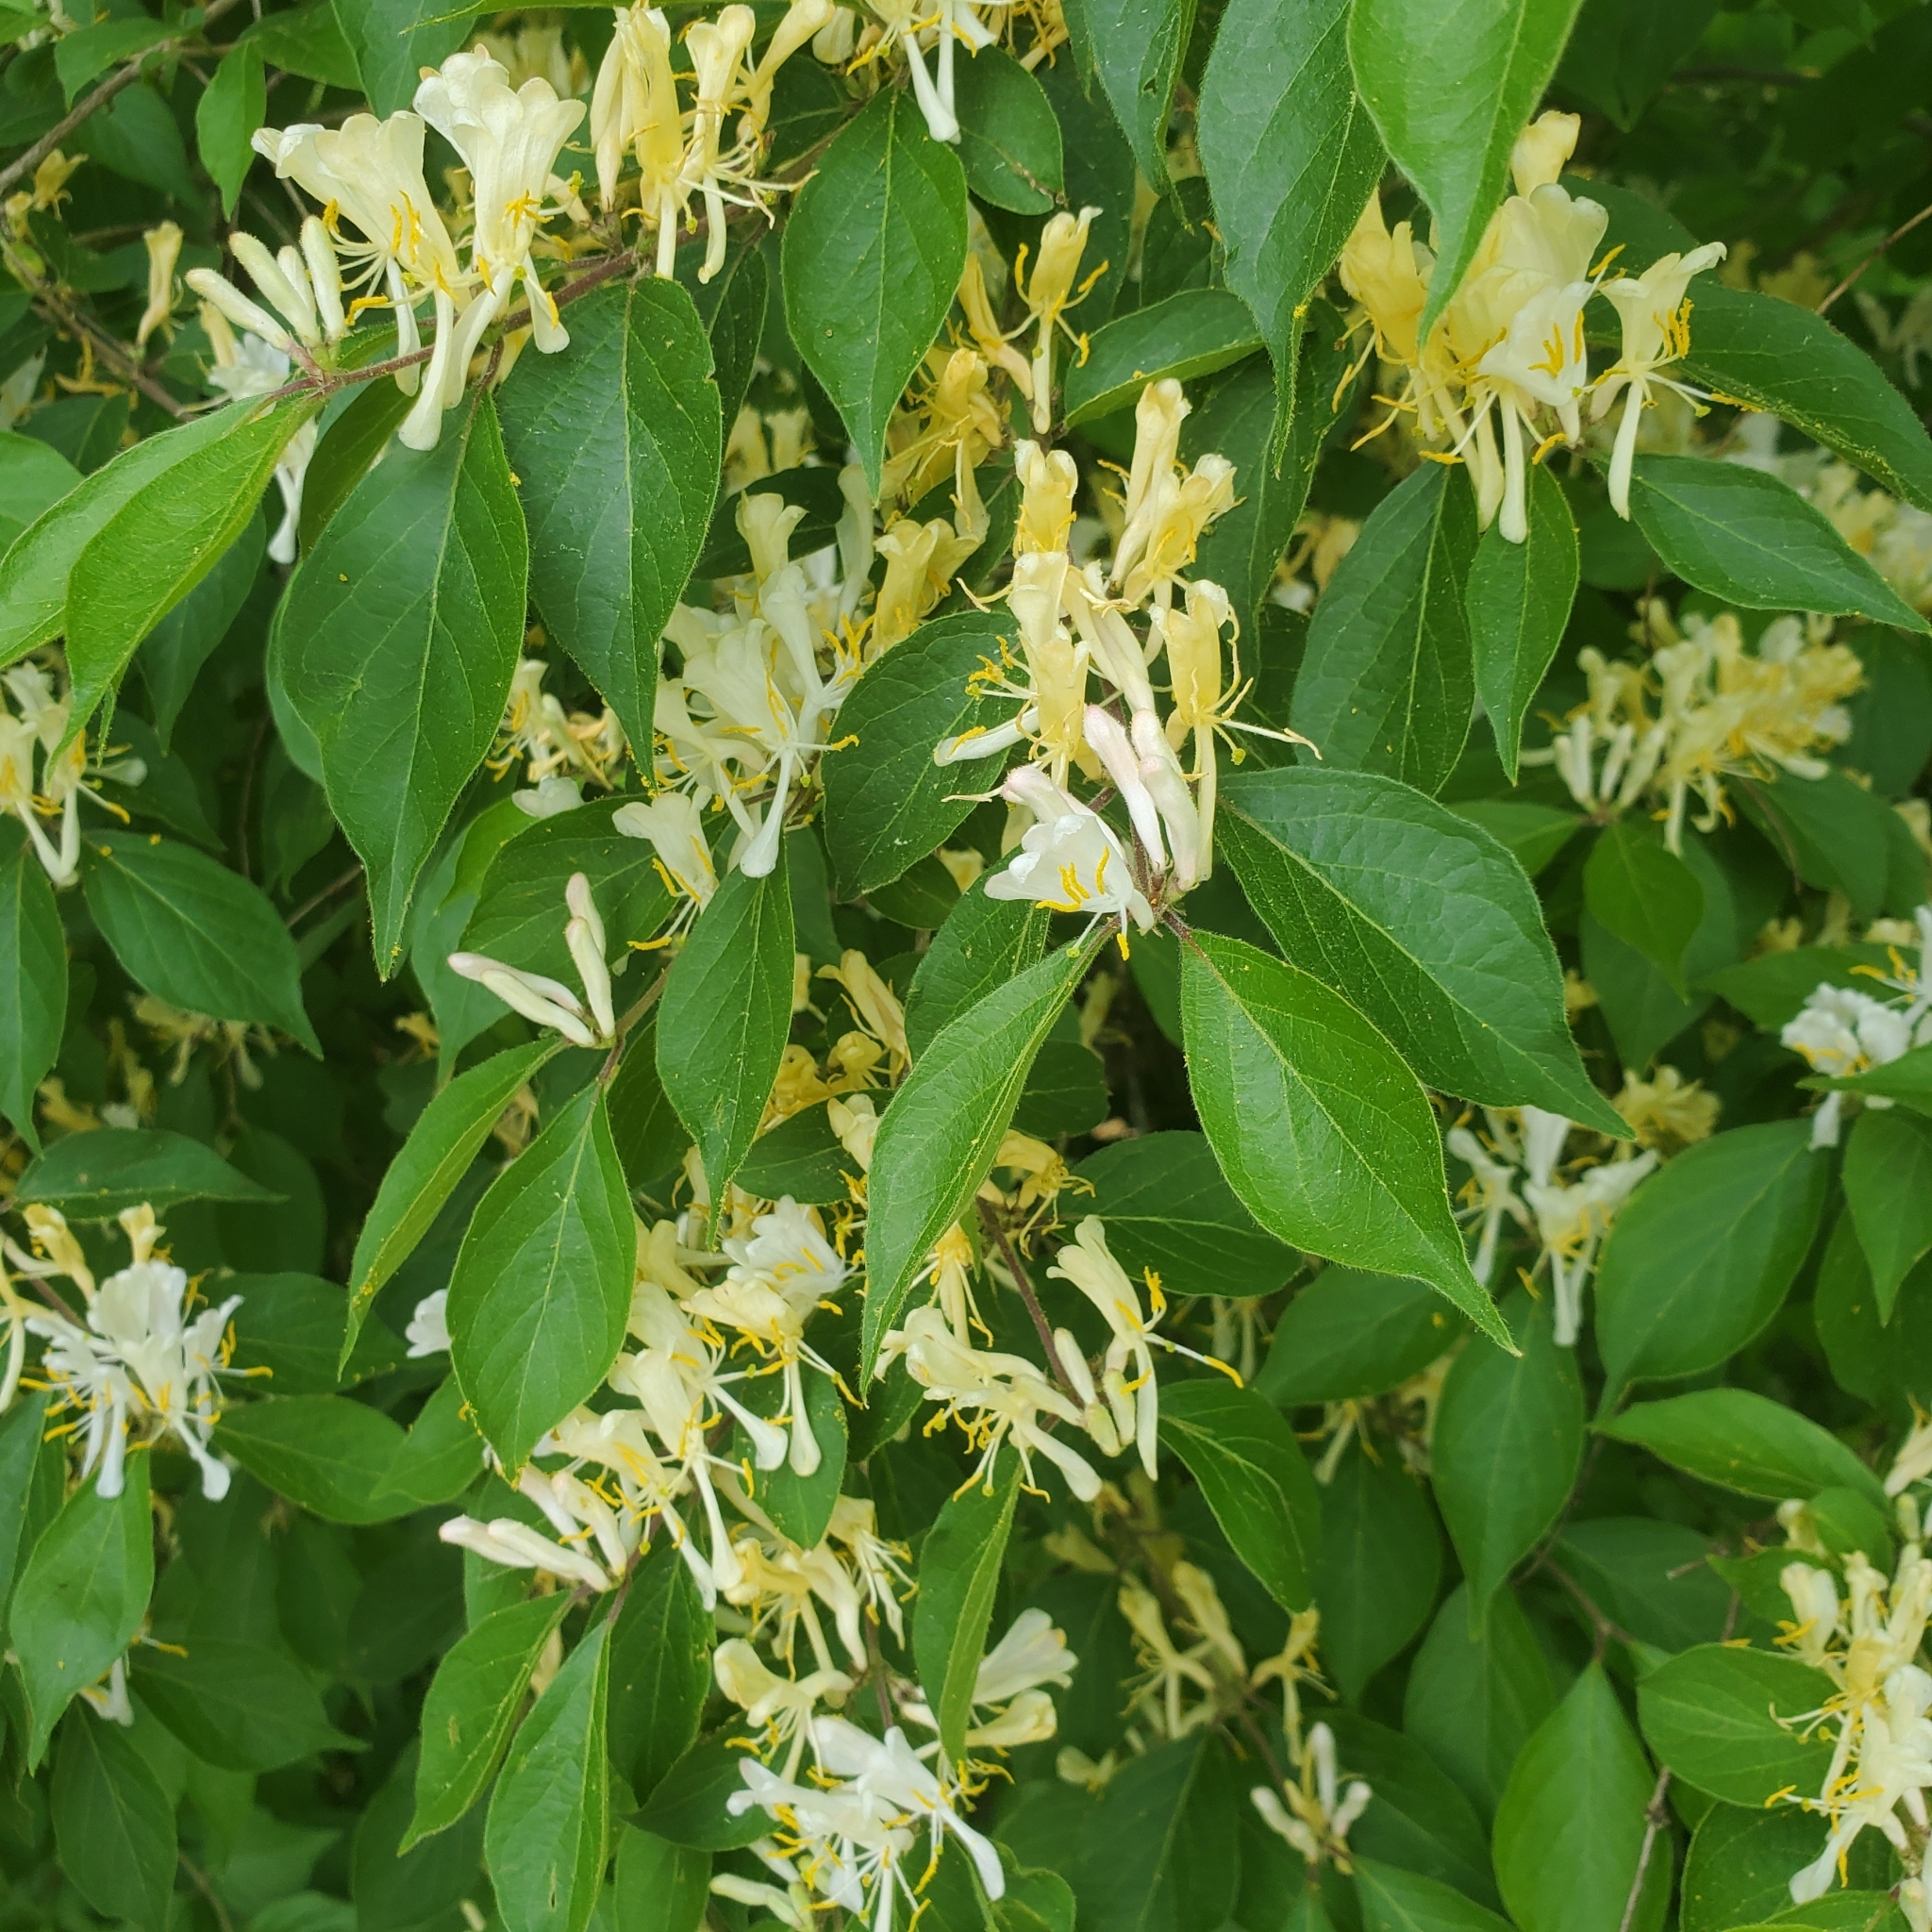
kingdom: Plantae
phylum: Tracheophyta
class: Magnoliopsida
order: Dipsacales
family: Caprifoliaceae
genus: Lonicera
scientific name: Lonicera maackii
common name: Amur honeysuckle
